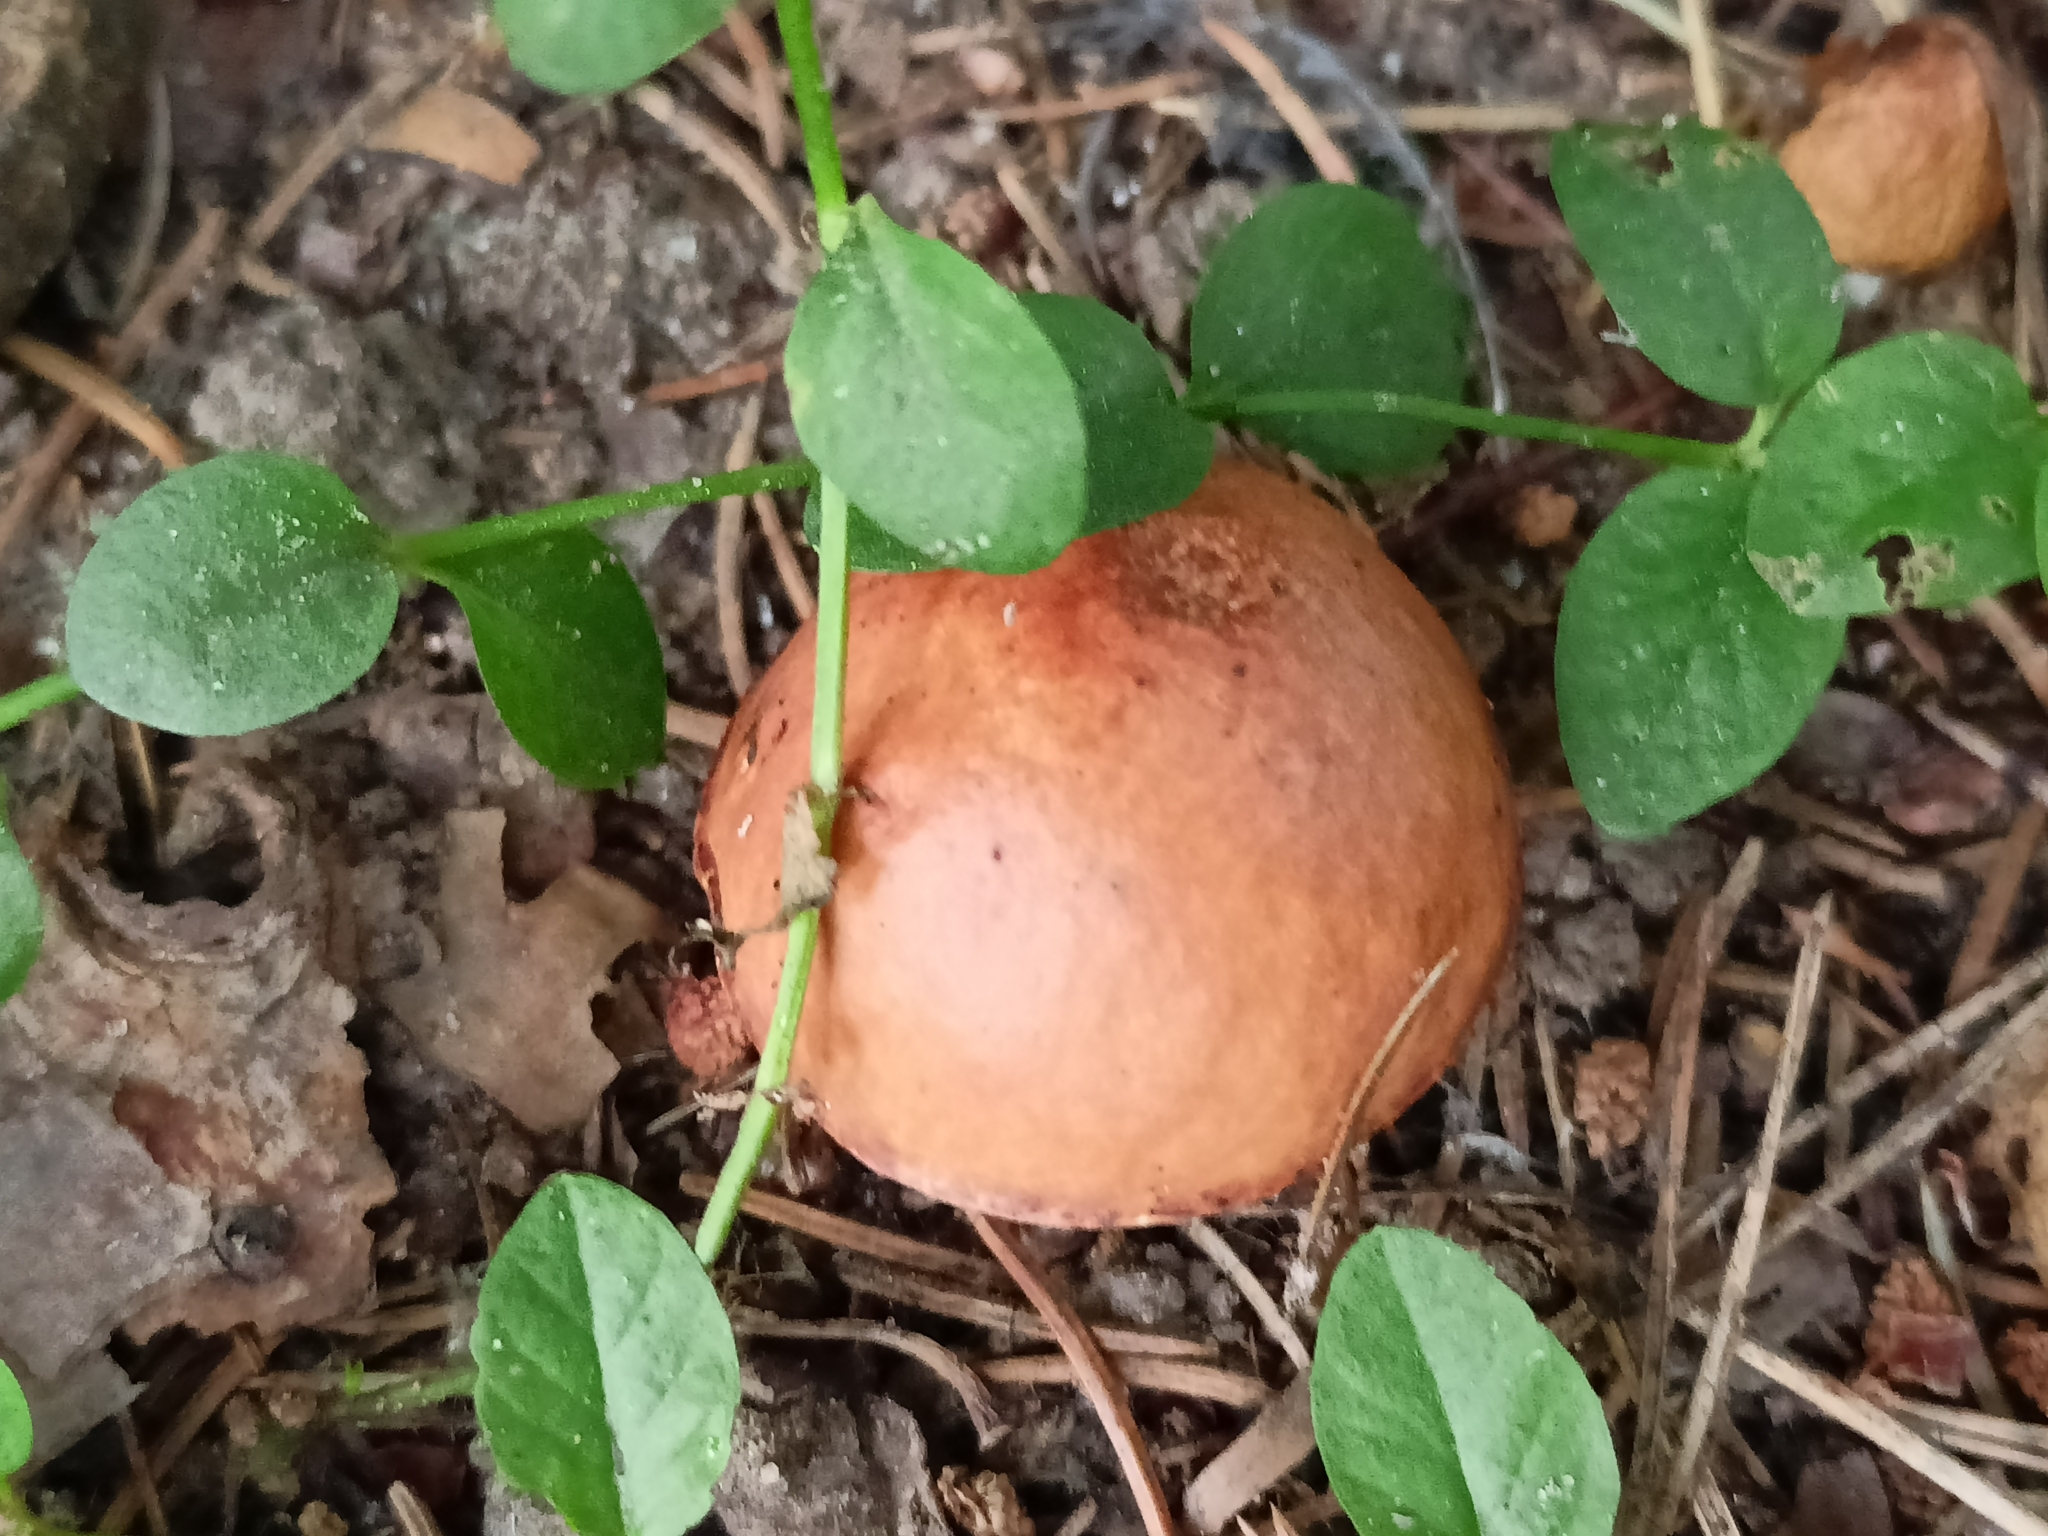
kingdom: Fungi
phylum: Basidiomycota
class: Agaricomycetes
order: Boletales
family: Suillaceae
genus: Suillus
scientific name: Suillus granulatus
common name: Weeping bolete
